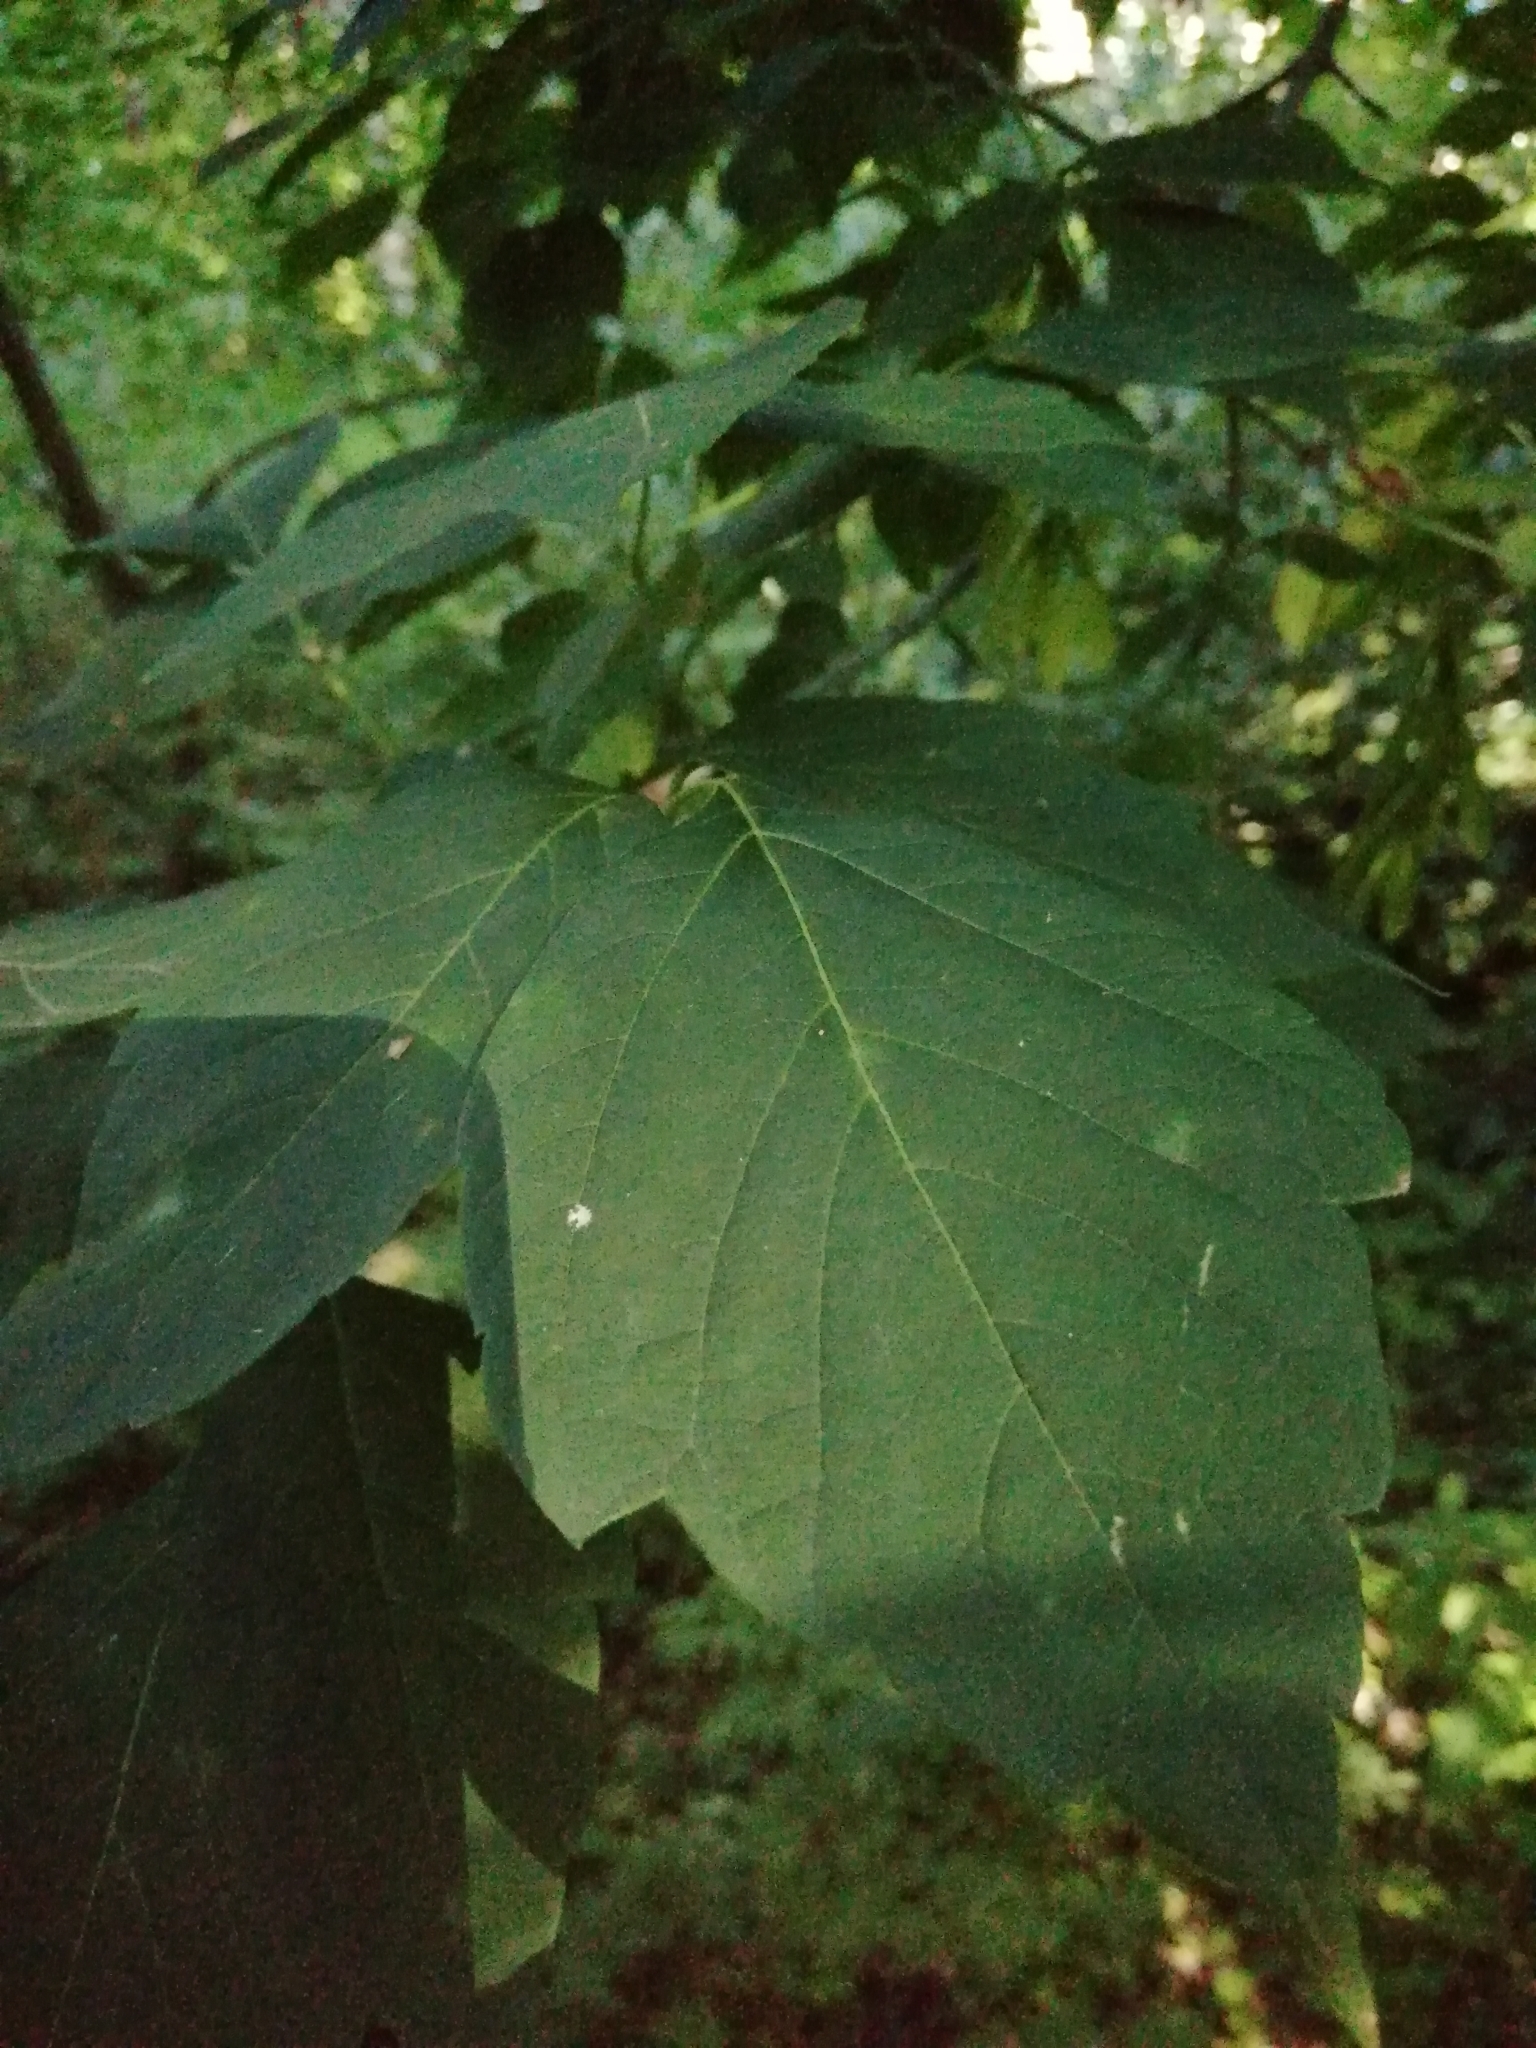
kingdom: Plantae
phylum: Tracheophyta
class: Magnoliopsida
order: Sapindales
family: Sapindaceae
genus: Acer
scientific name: Acer negundo
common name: Ashleaf maple
